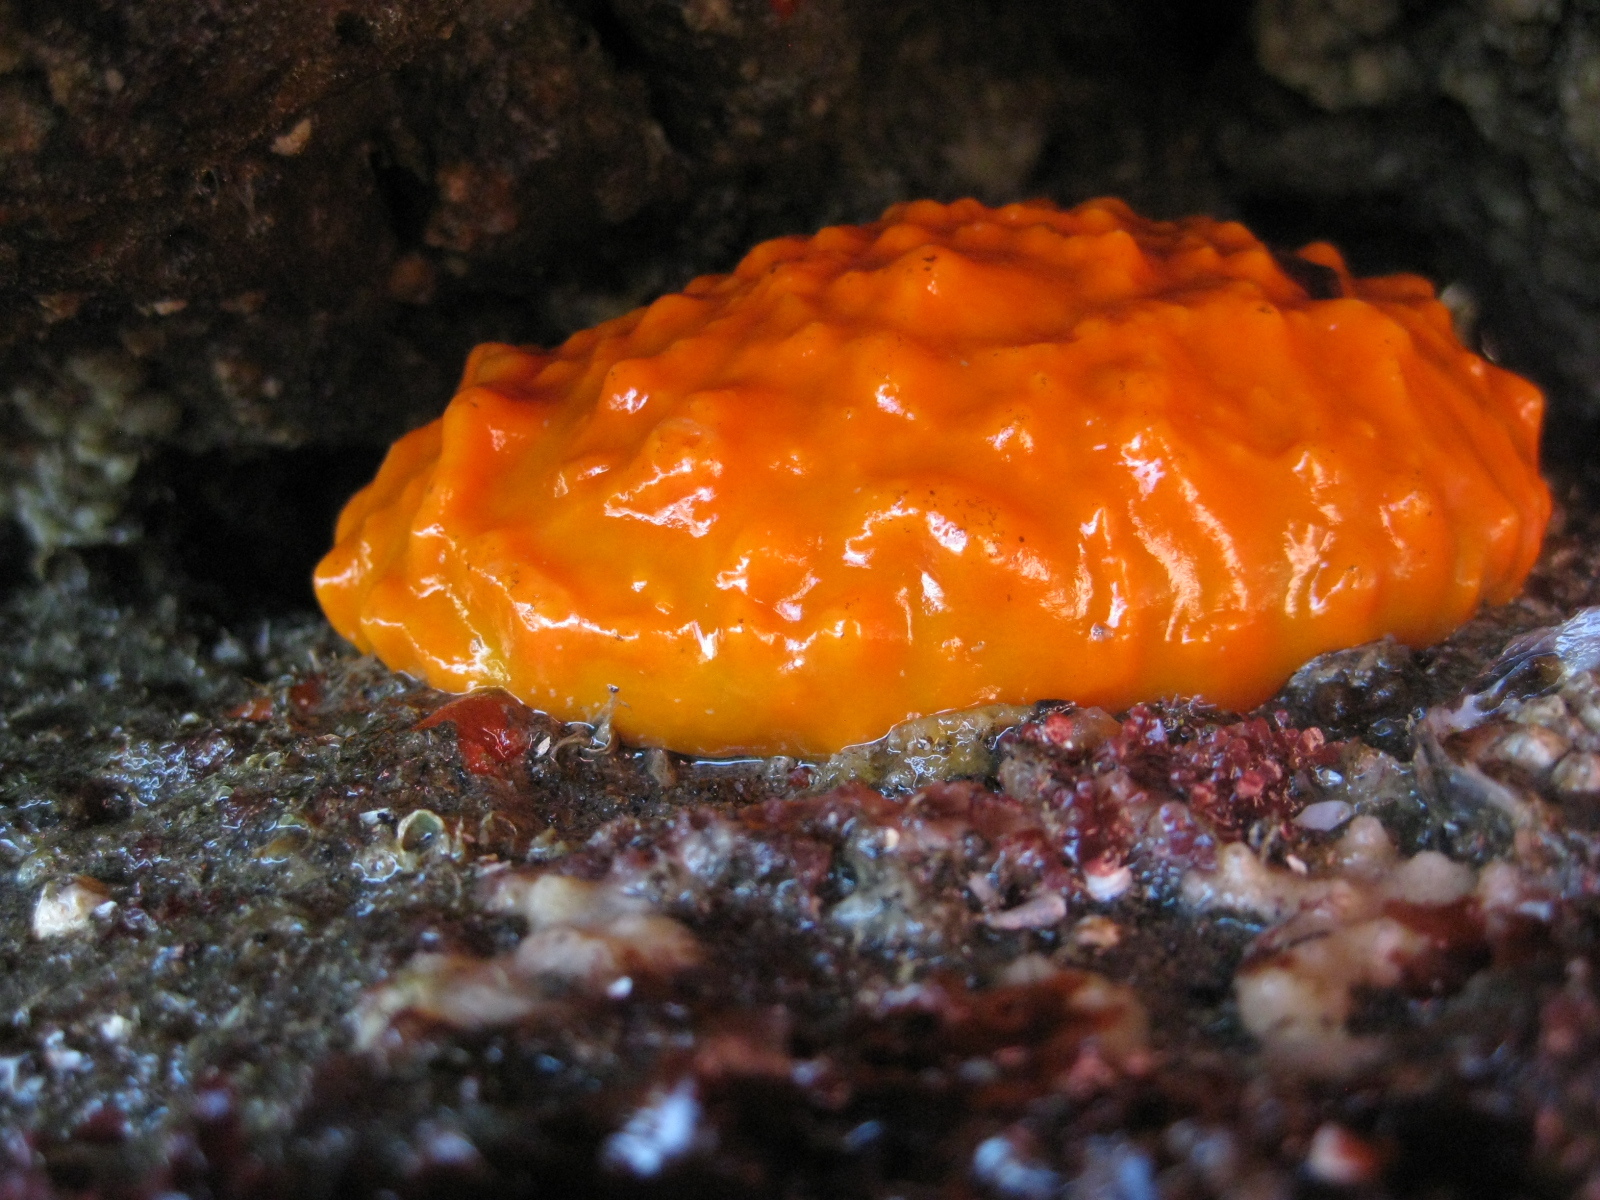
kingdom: Animalia
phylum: Porifera
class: Demospongiae
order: Polymastiida
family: Polymastiidae
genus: Polymastia
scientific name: Polymastia aurantia
